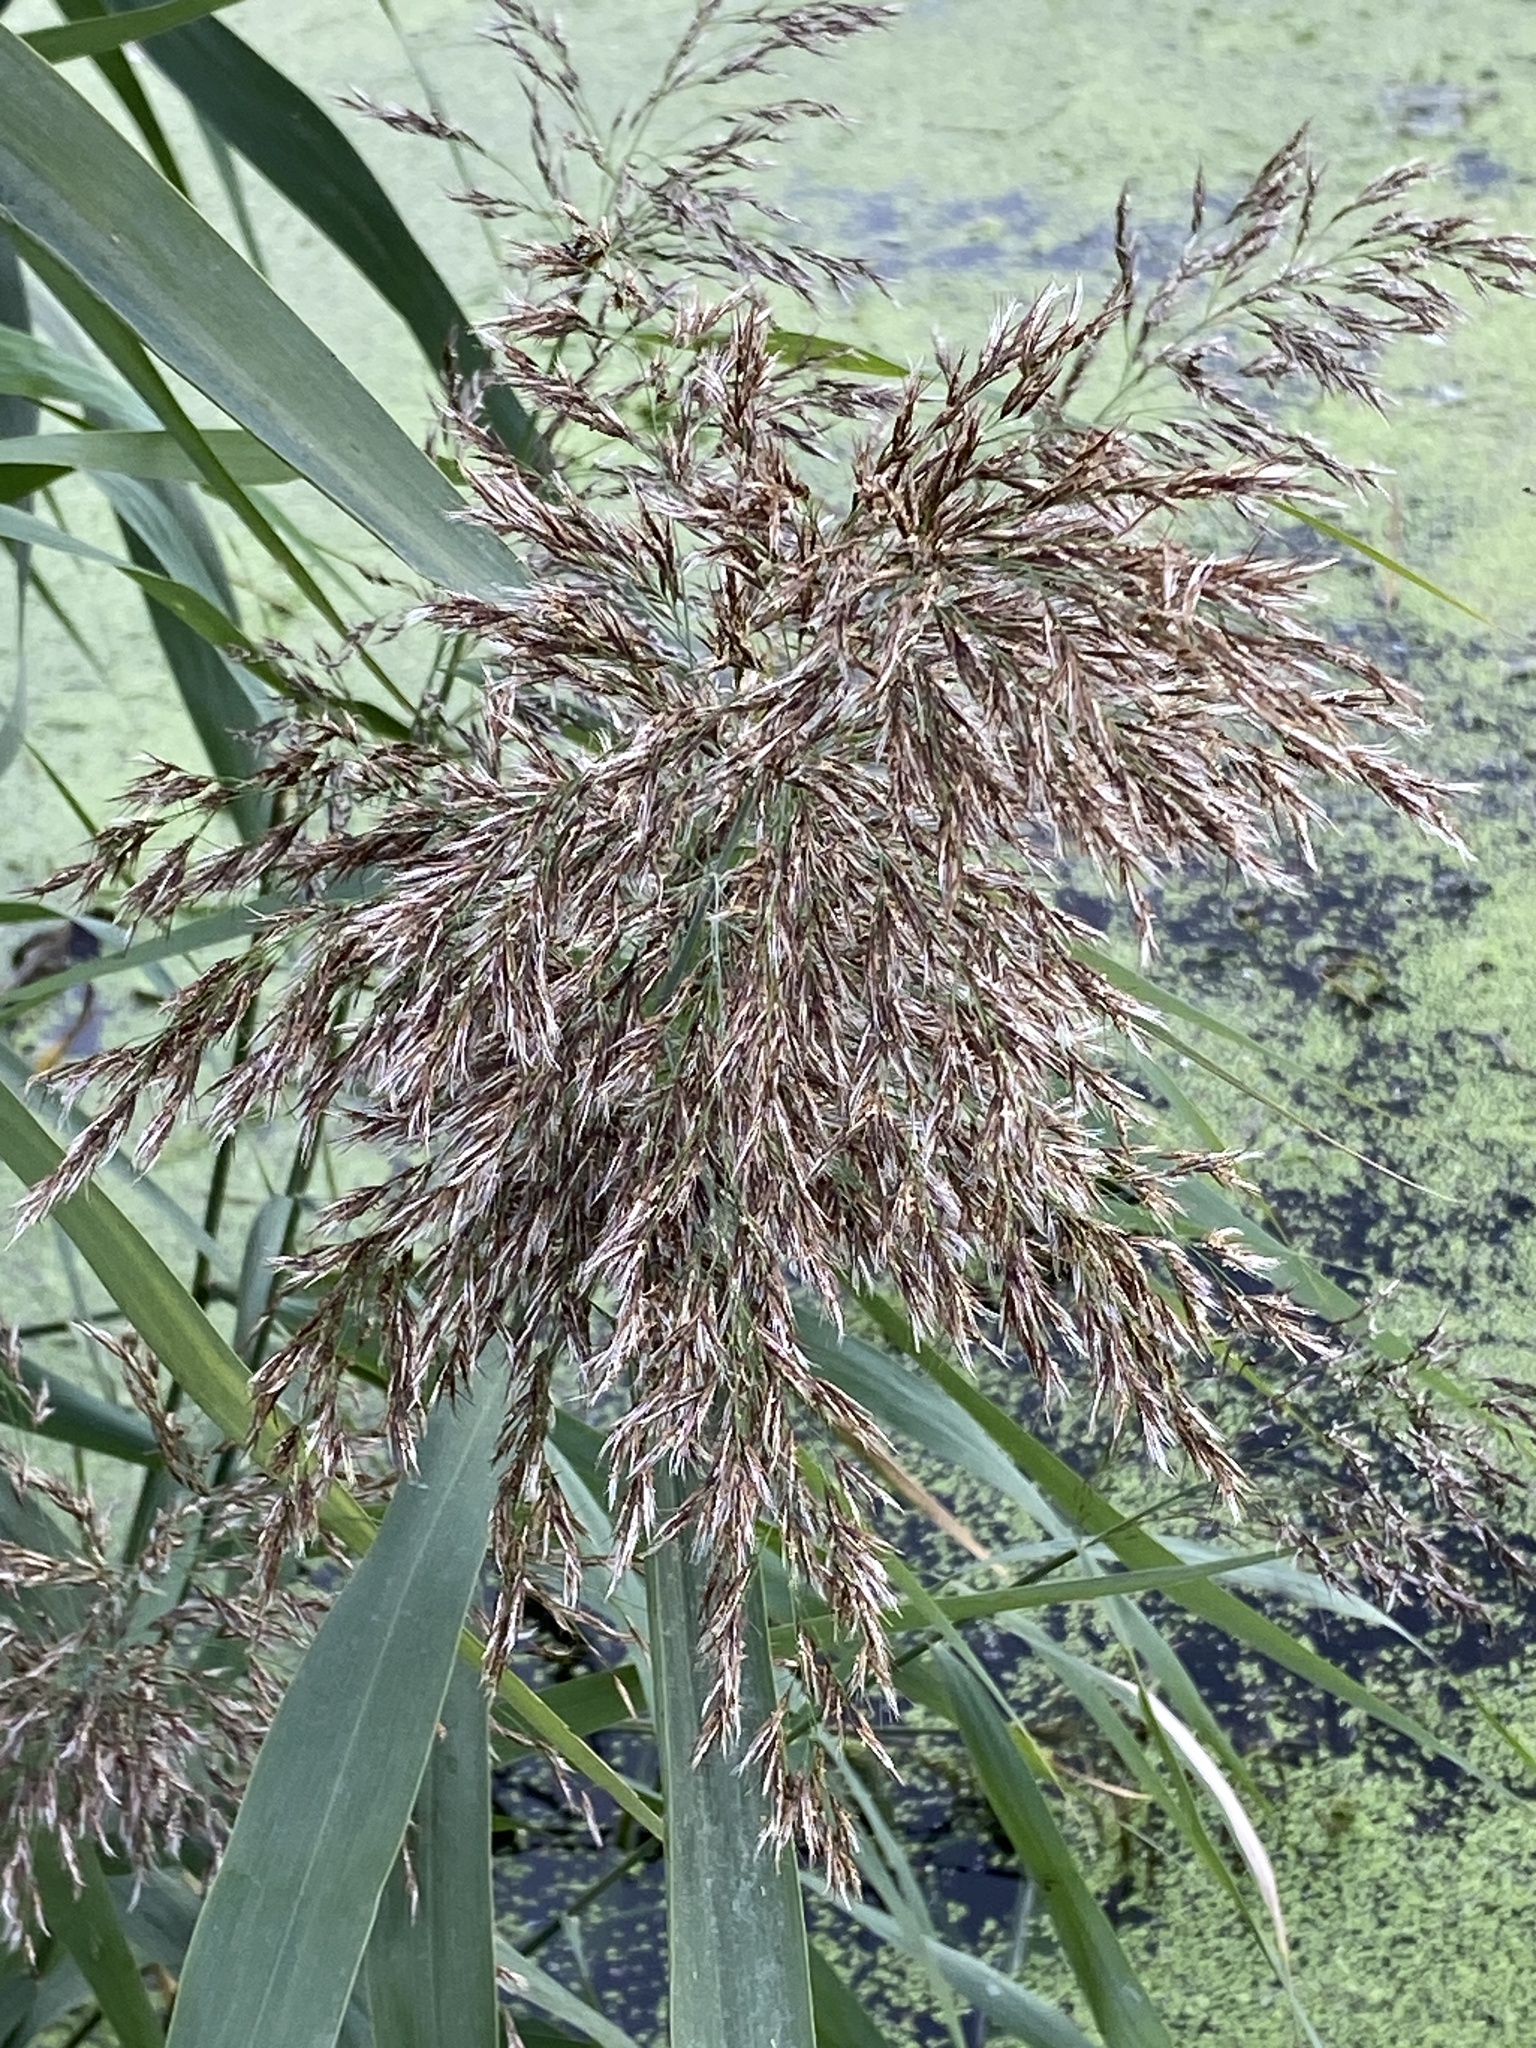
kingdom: Plantae
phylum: Tracheophyta
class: Liliopsida
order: Poales
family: Poaceae
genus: Phragmites
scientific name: Phragmites australis
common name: Common reed
